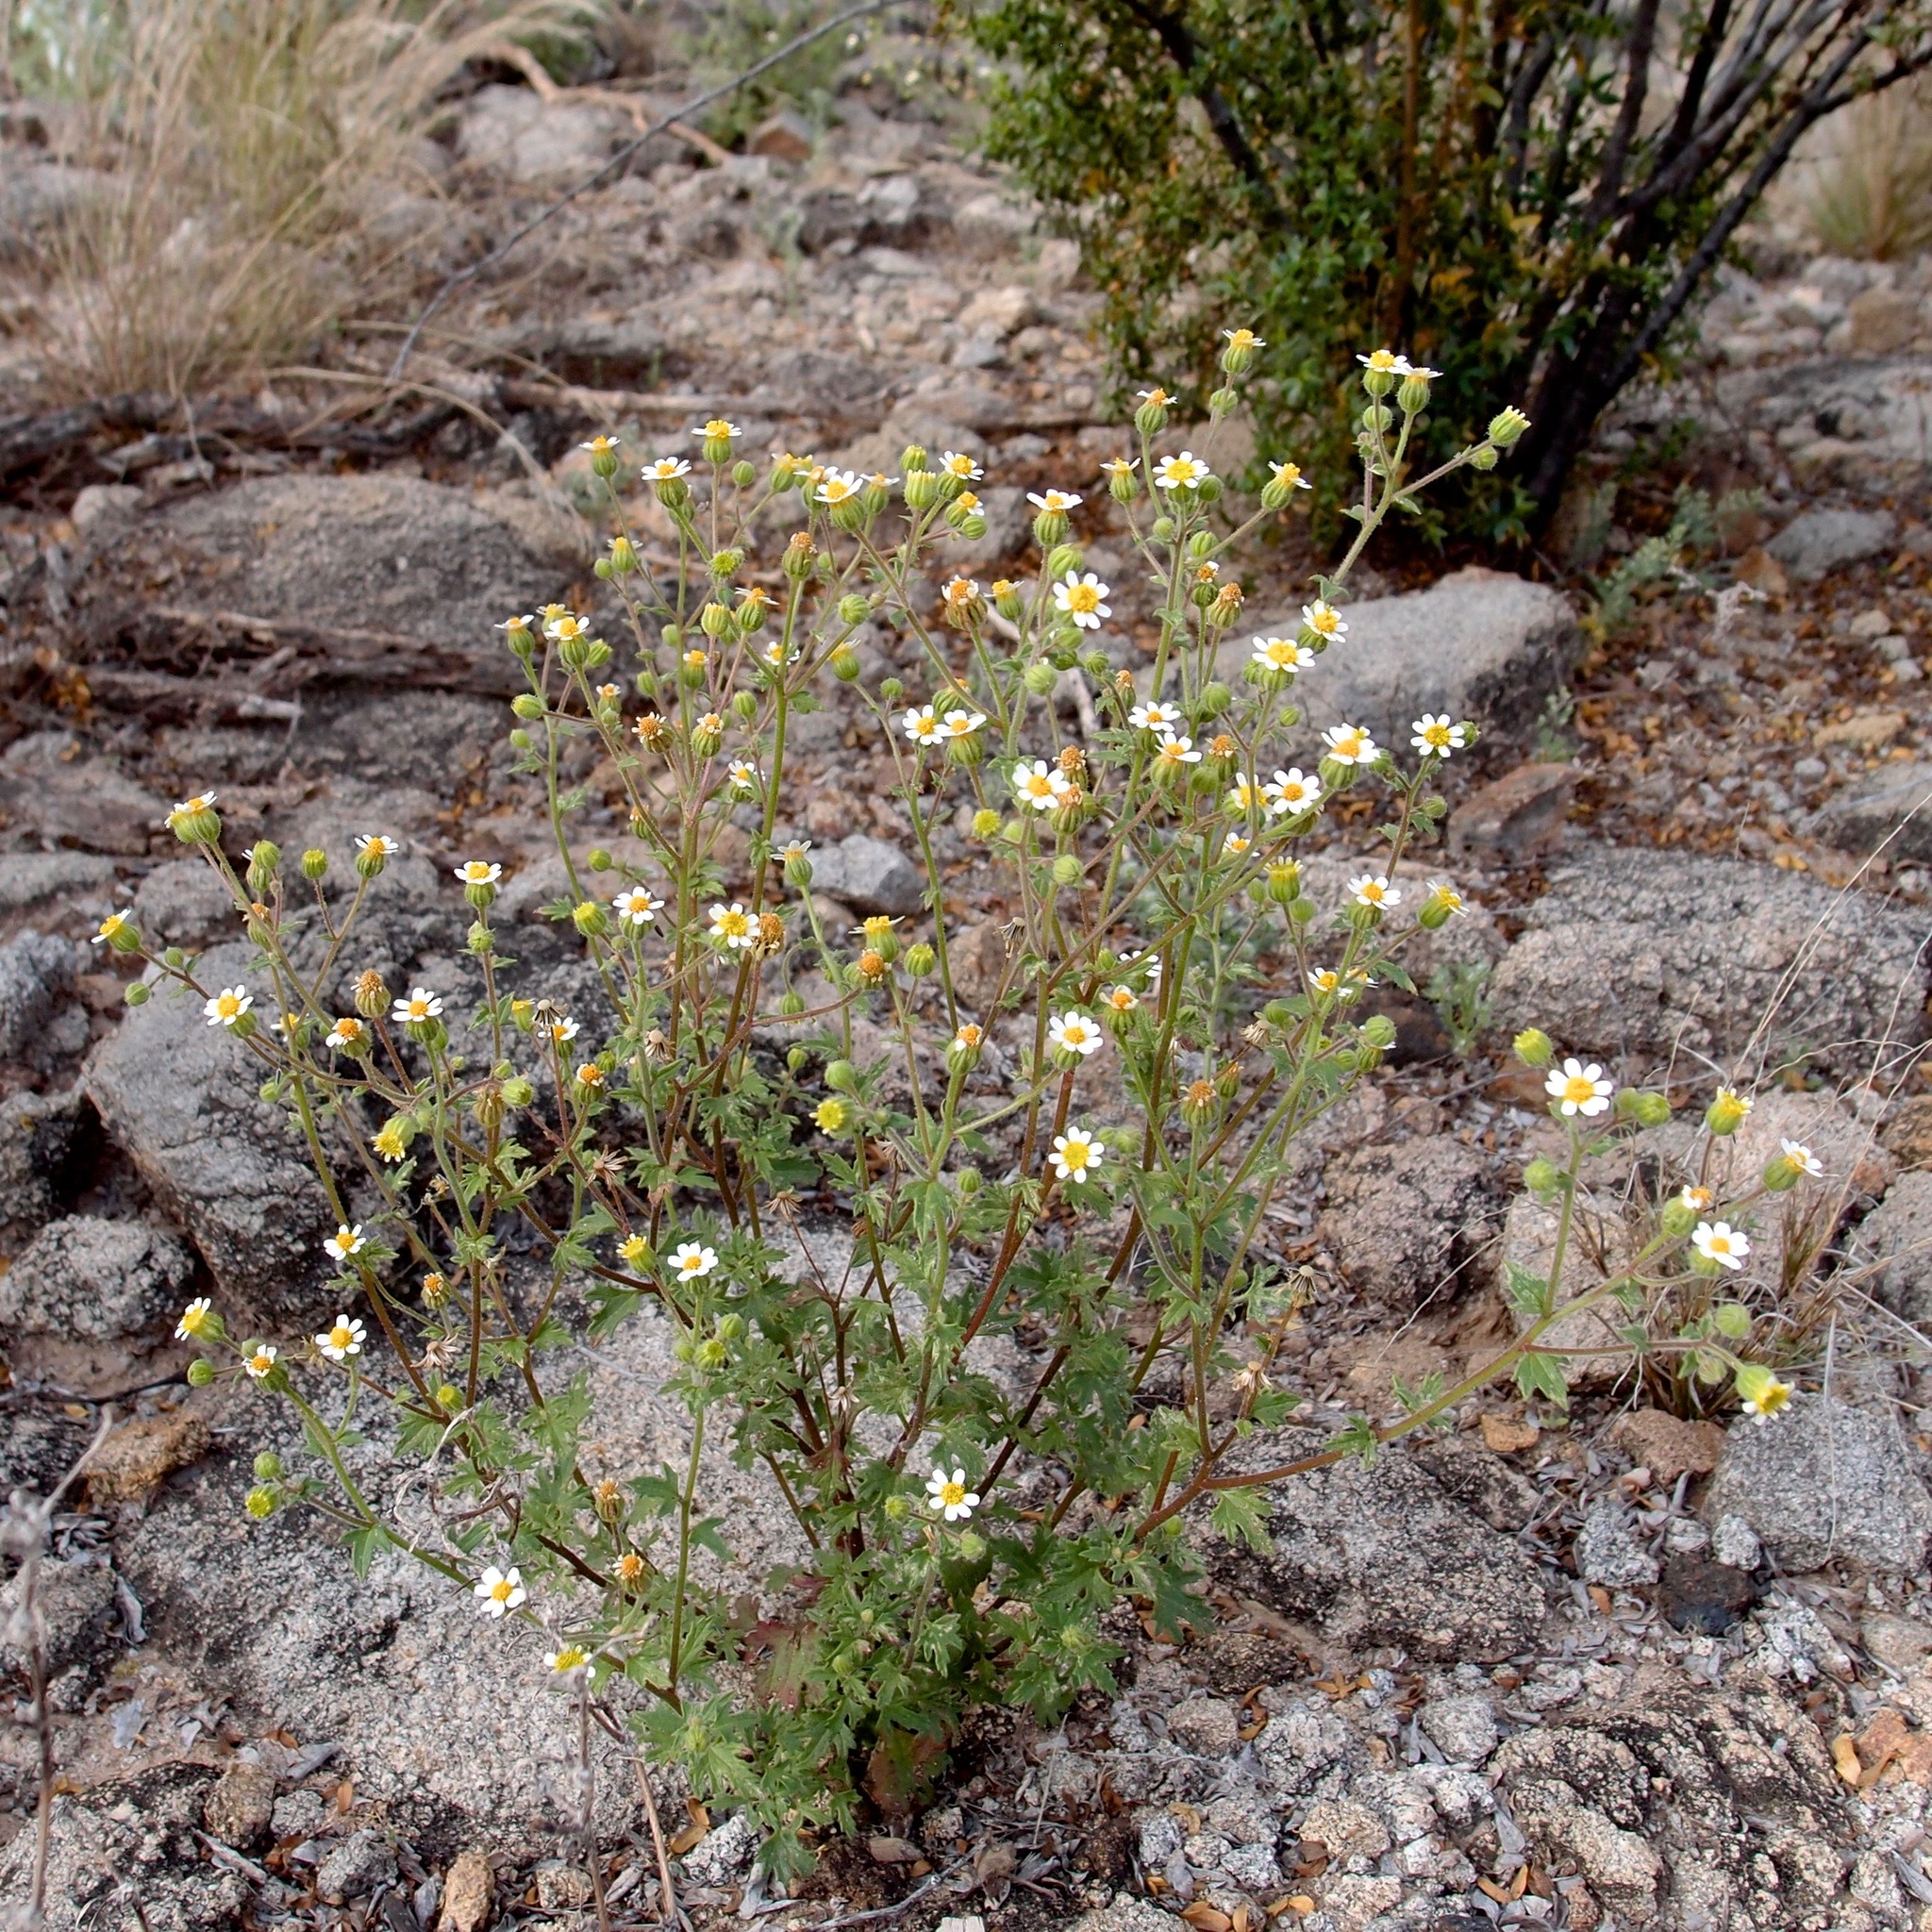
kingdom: Plantae
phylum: Tracheophyta
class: Magnoliopsida
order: Asterales
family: Asteraceae
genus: Laphamia
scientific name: Laphamia emoryi
